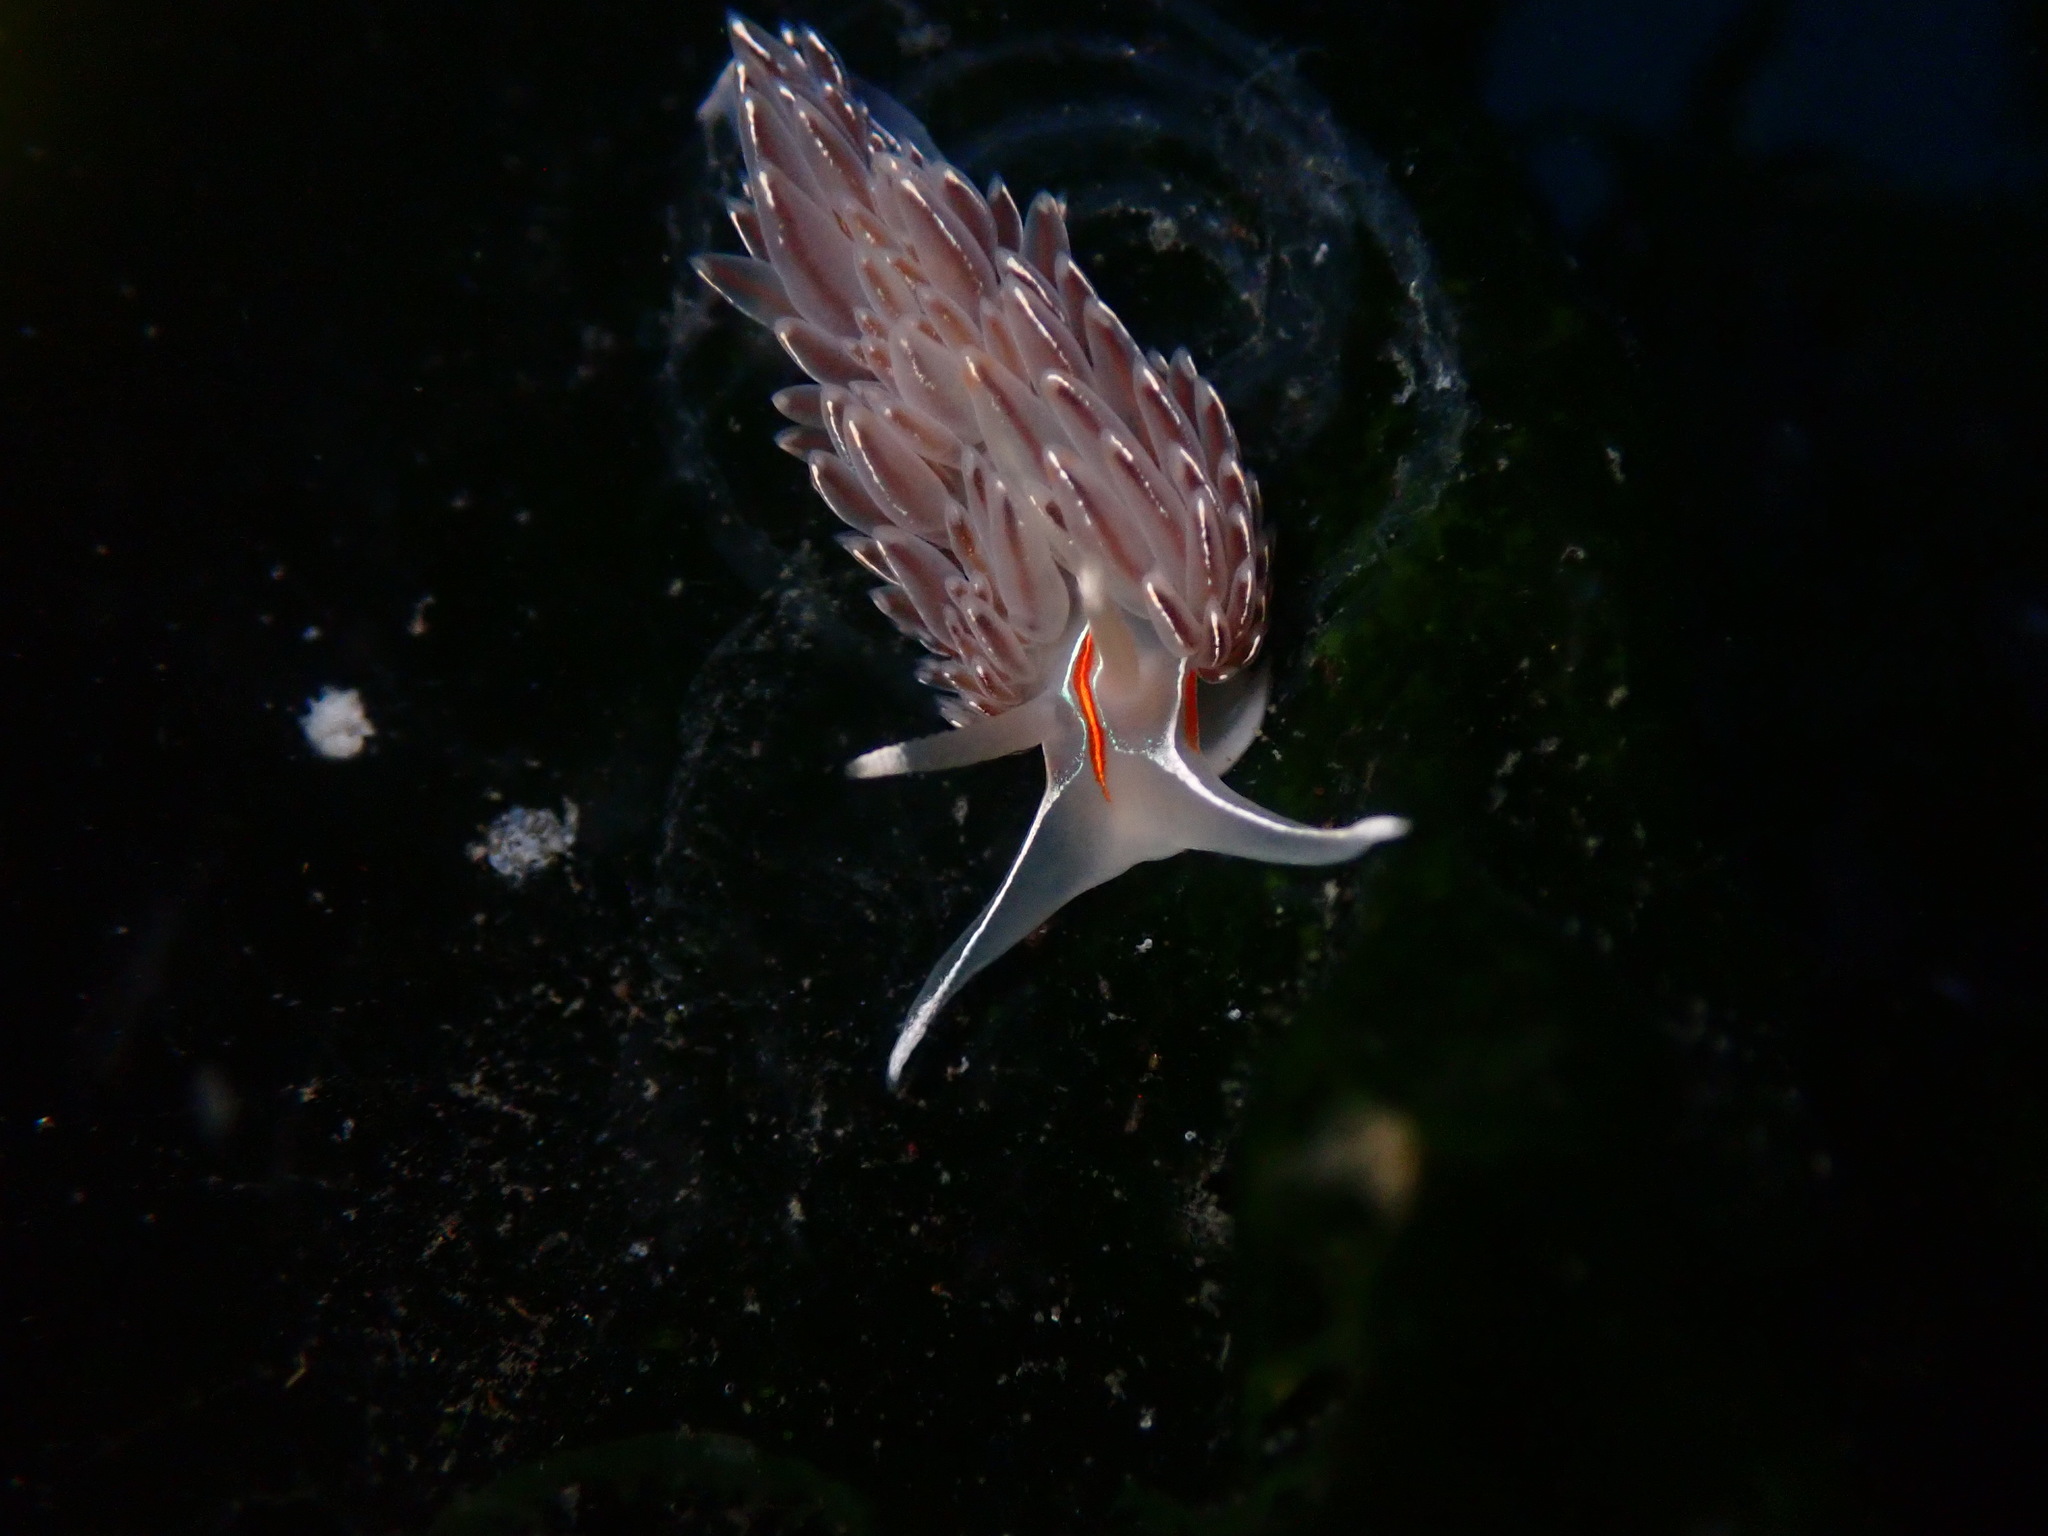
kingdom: Animalia
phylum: Mollusca
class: Gastropoda
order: Nudibranchia
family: Myrrhinidae
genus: Hermissenda
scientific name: Hermissenda crassicornis
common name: Hermissenda
